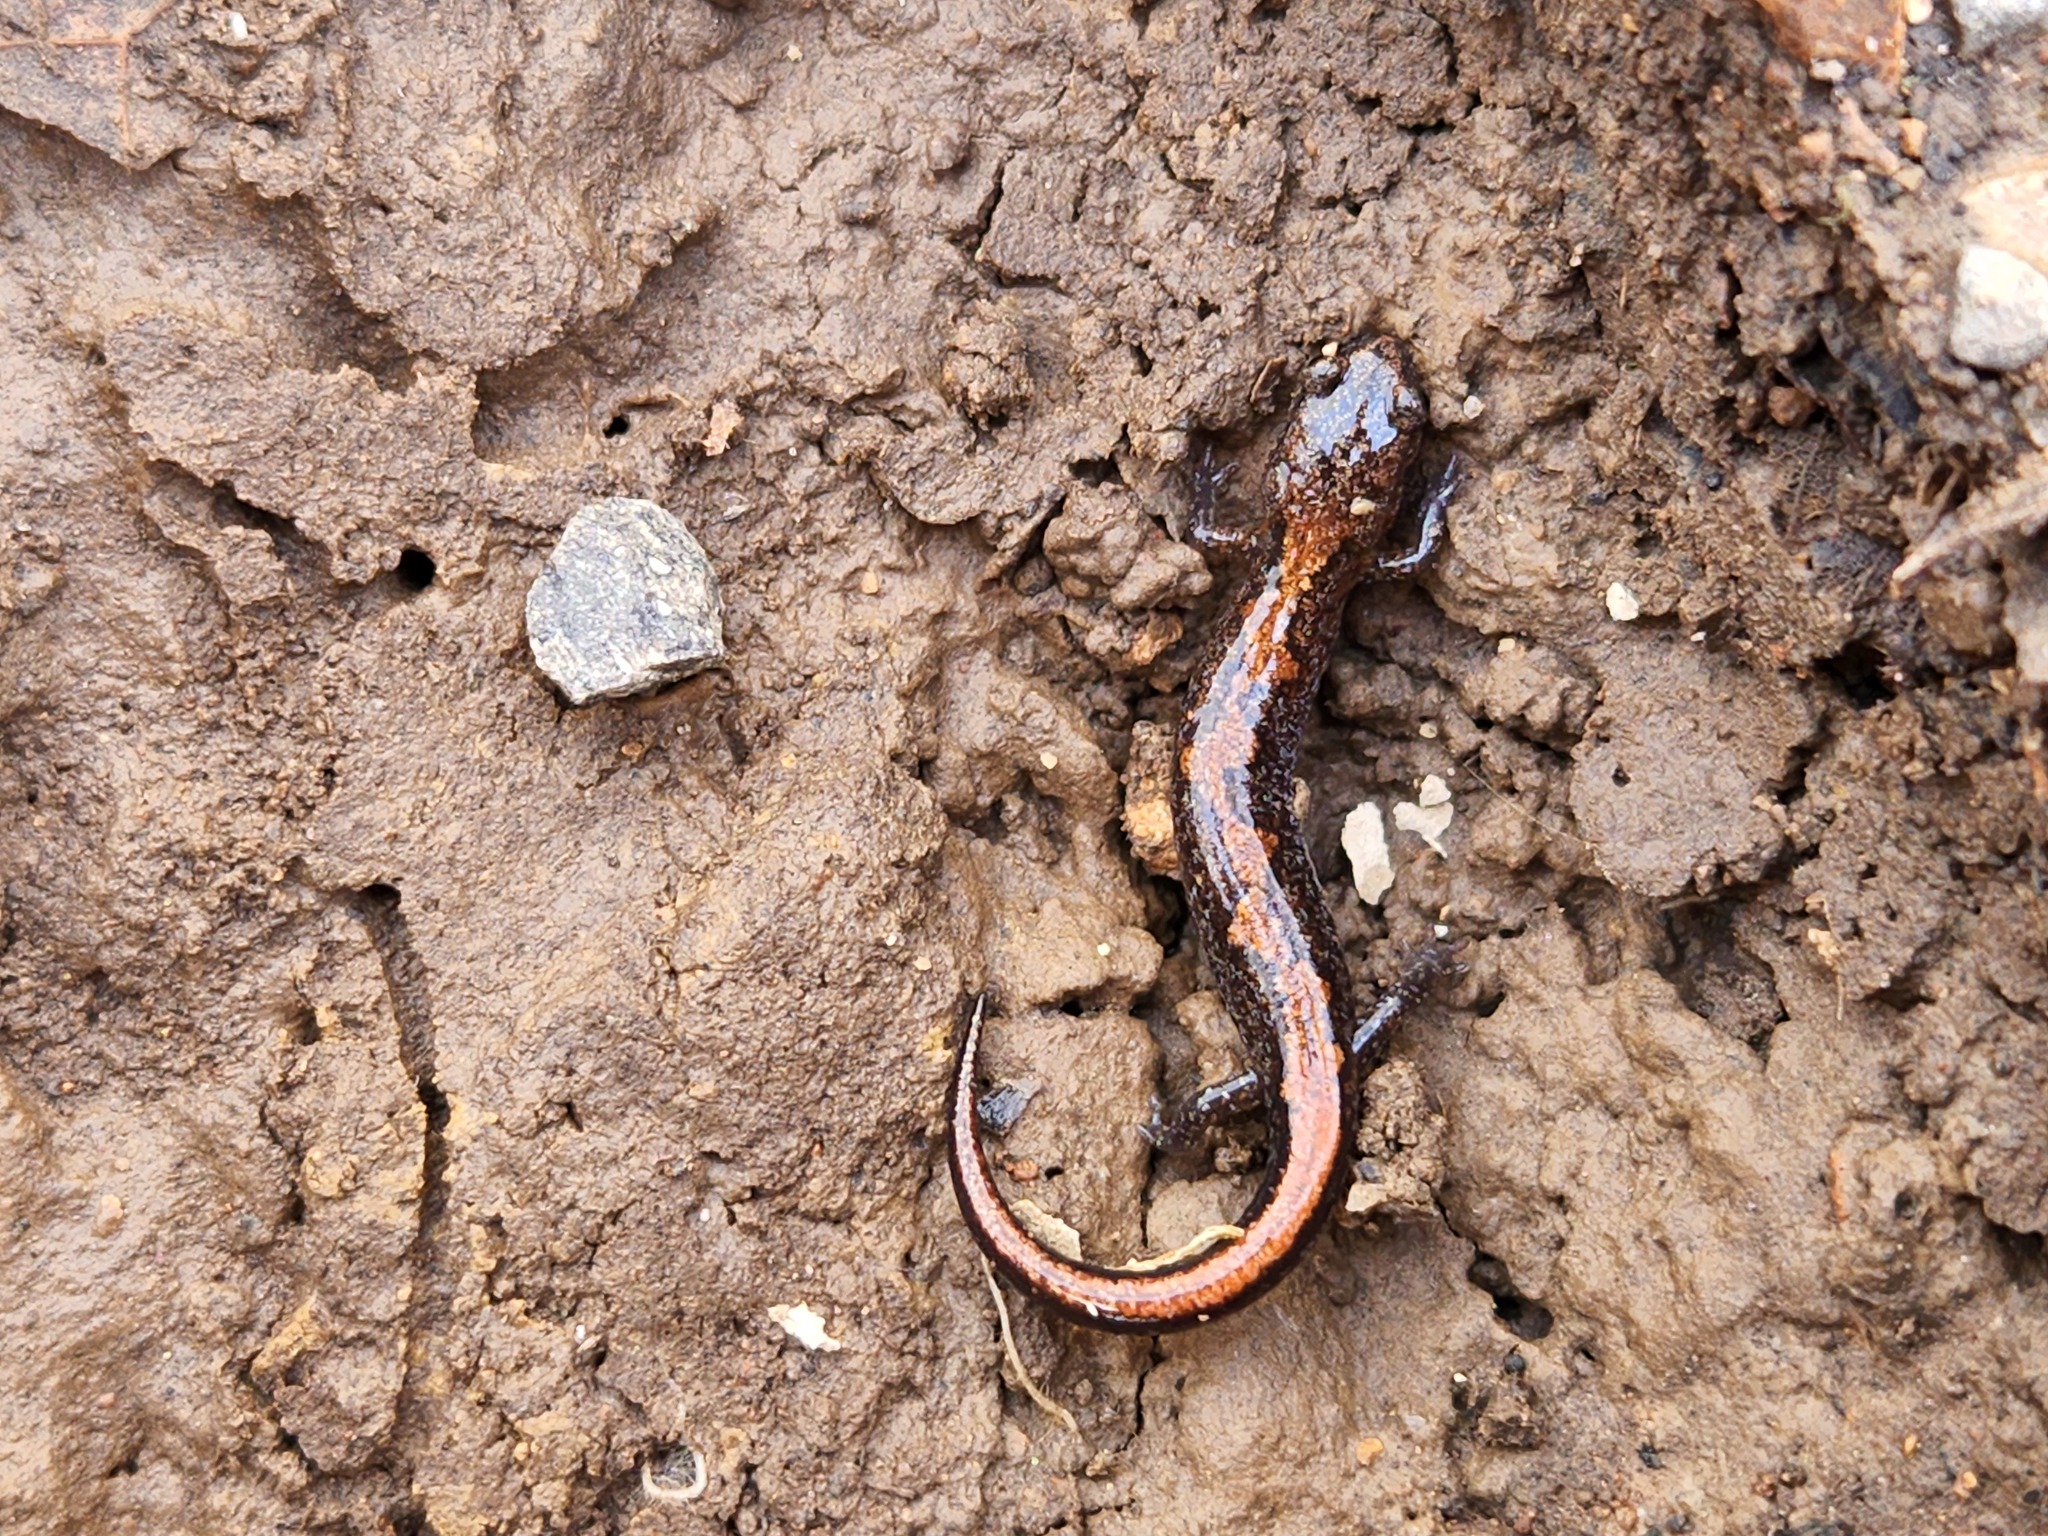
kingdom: Animalia
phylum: Chordata
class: Amphibia
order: Caudata
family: Plethodontidae
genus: Plethodon
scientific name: Plethodon dorsalis
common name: Northern zigzag salamander
